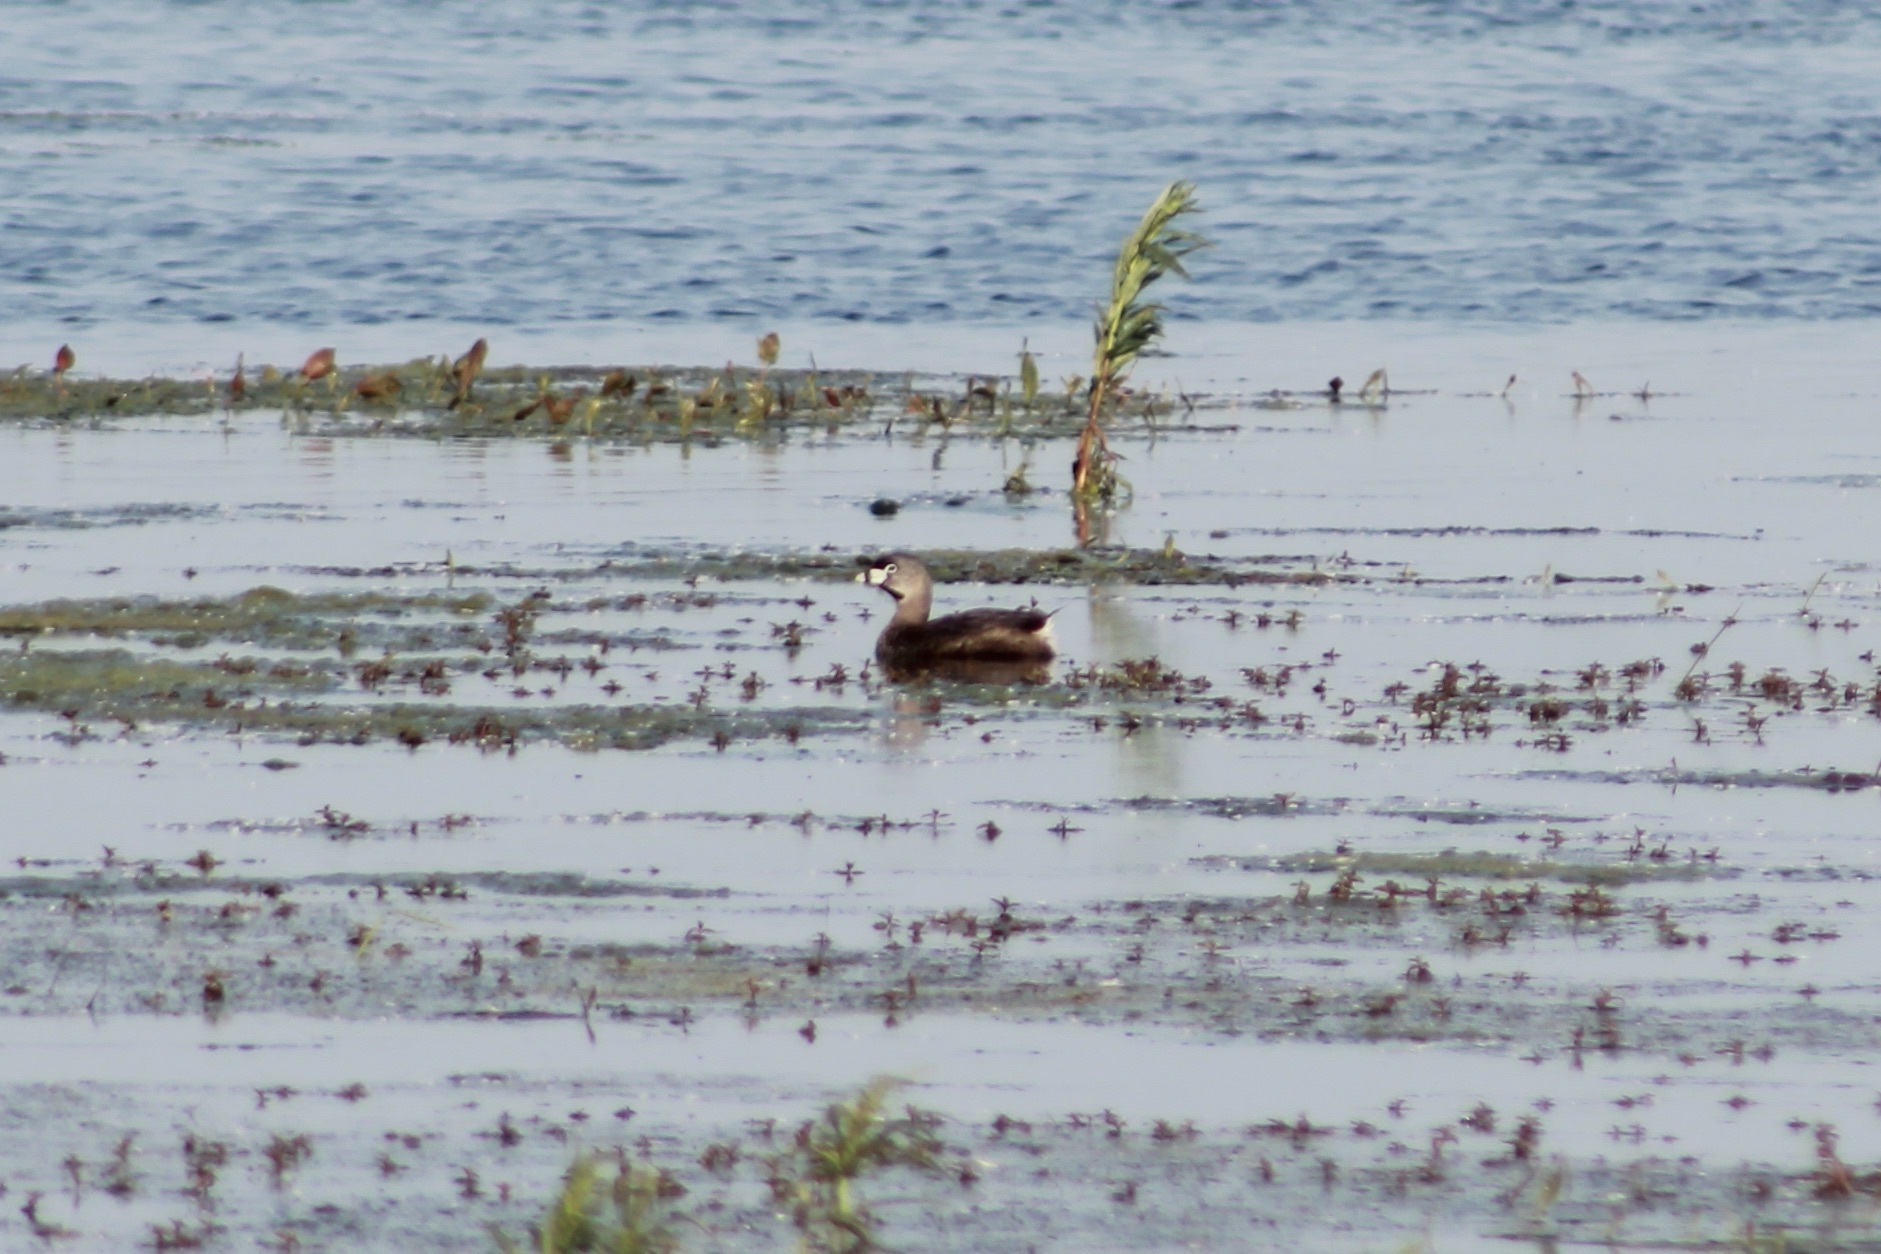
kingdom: Animalia
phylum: Chordata
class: Aves
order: Podicipediformes
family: Podicipedidae
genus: Podilymbus
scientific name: Podilymbus podiceps
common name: Pied-billed grebe
